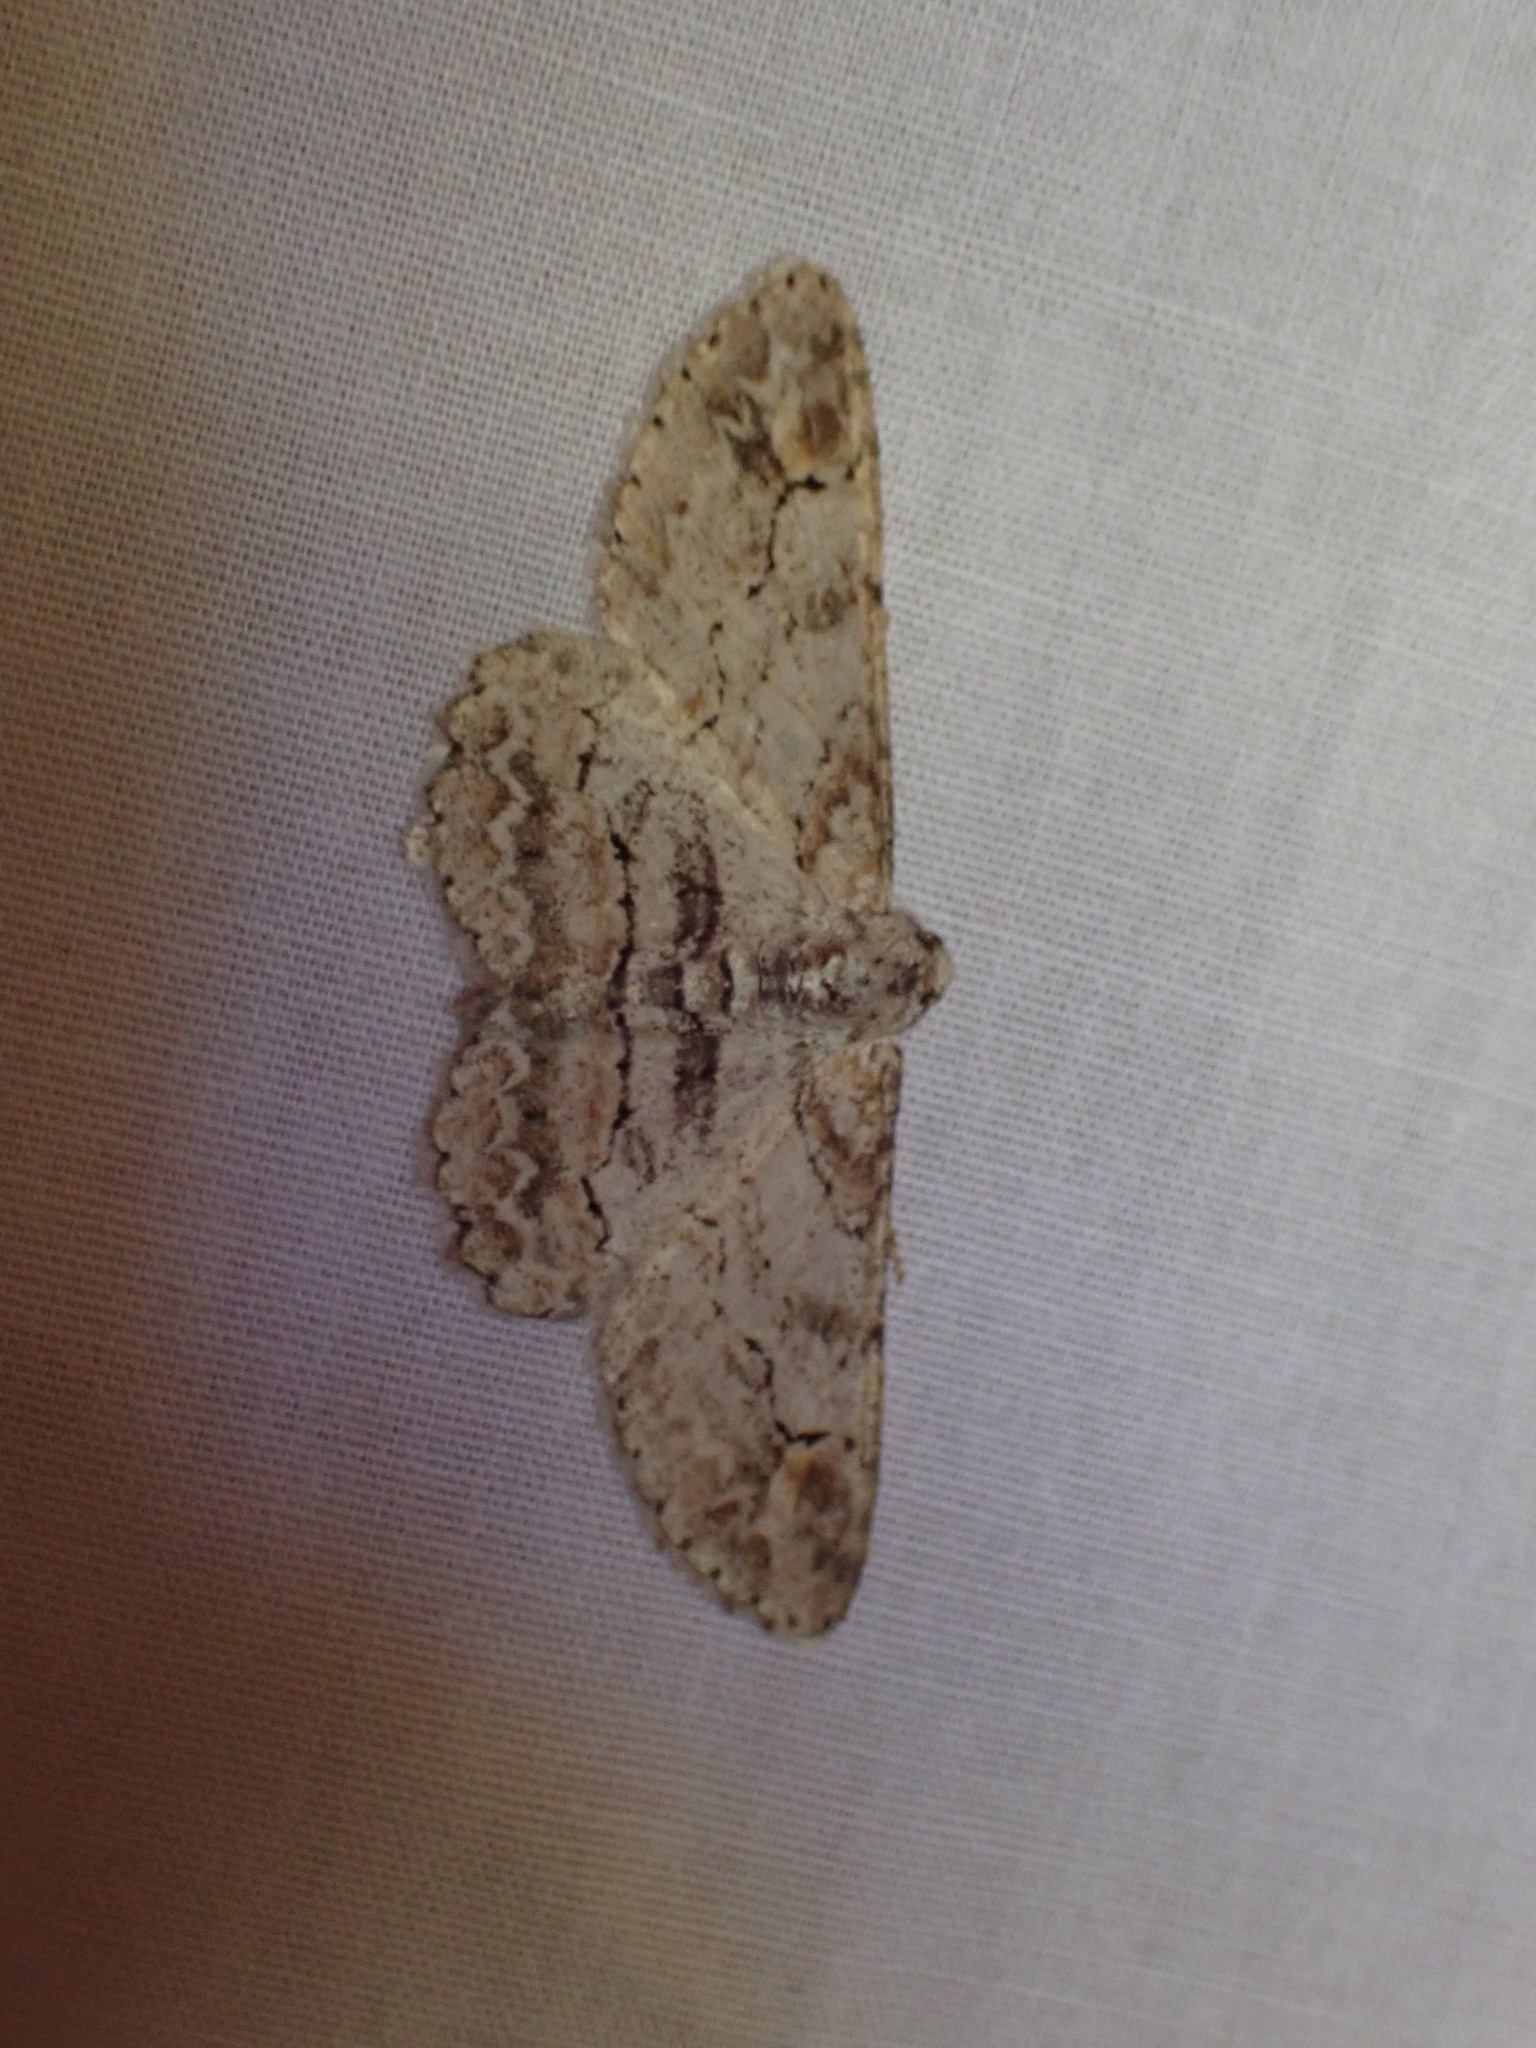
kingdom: Animalia
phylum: Arthropoda
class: Insecta
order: Lepidoptera
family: Geometridae
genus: Iridopsis
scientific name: Iridopsis emasculatum
